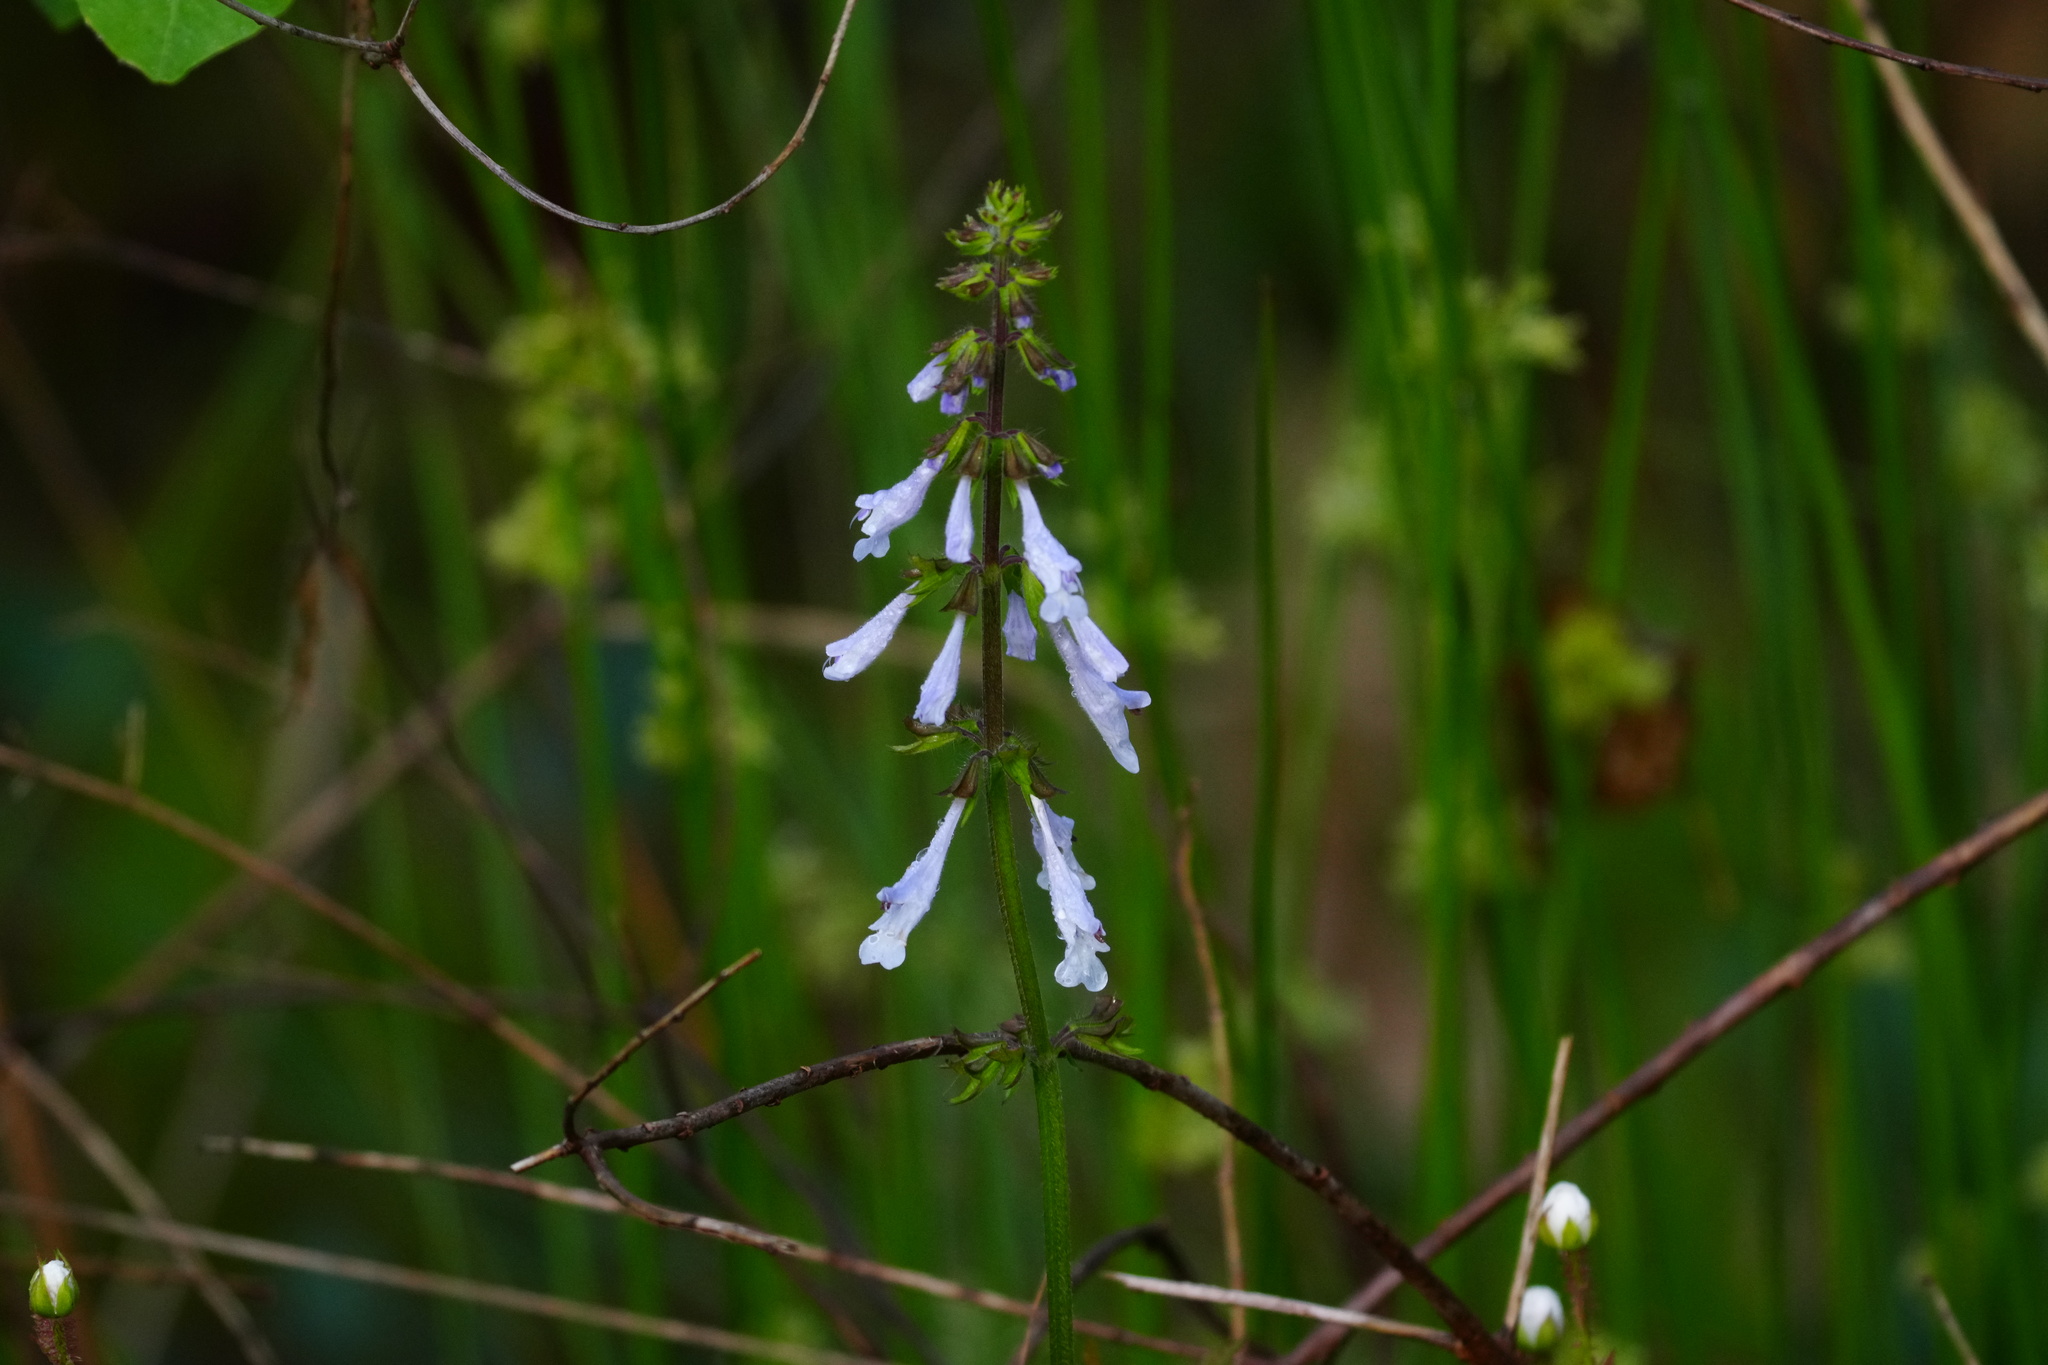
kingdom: Plantae
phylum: Tracheophyta
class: Magnoliopsida
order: Lamiales
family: Lamiaceae
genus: Salvia
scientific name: Salvia lyrata
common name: Cancerweed
